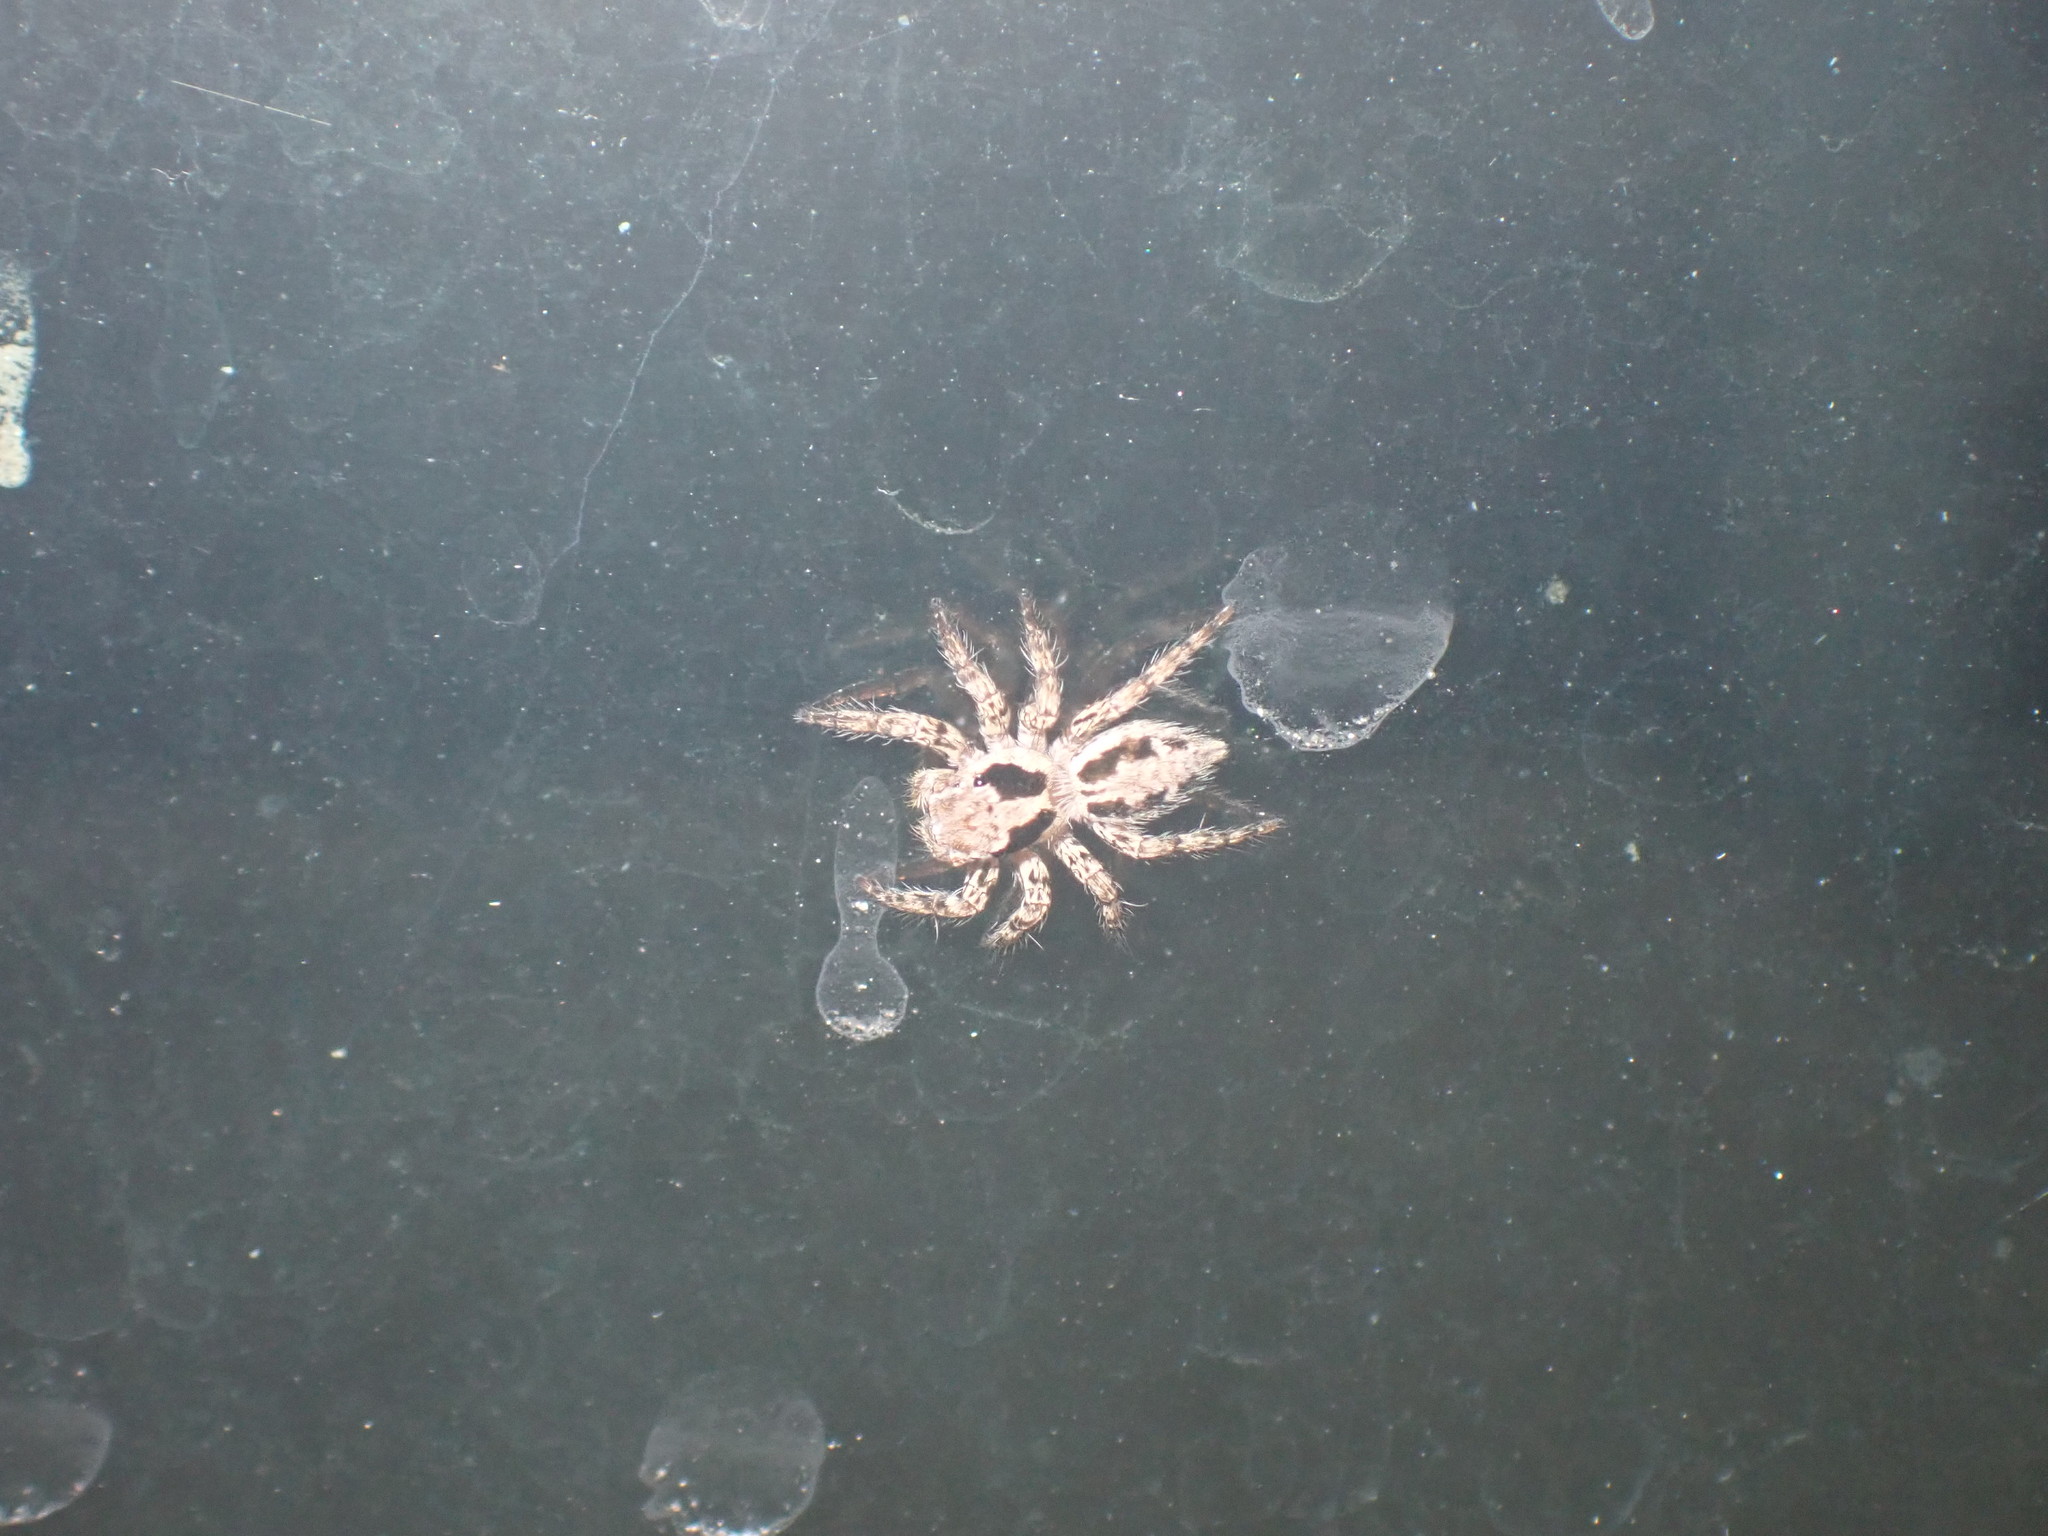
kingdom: Animalia
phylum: Arthropoda
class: Arachnida
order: Araneae
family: Salticidae
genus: Plexippus
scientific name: Plexippus petersi
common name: Jumping spider
